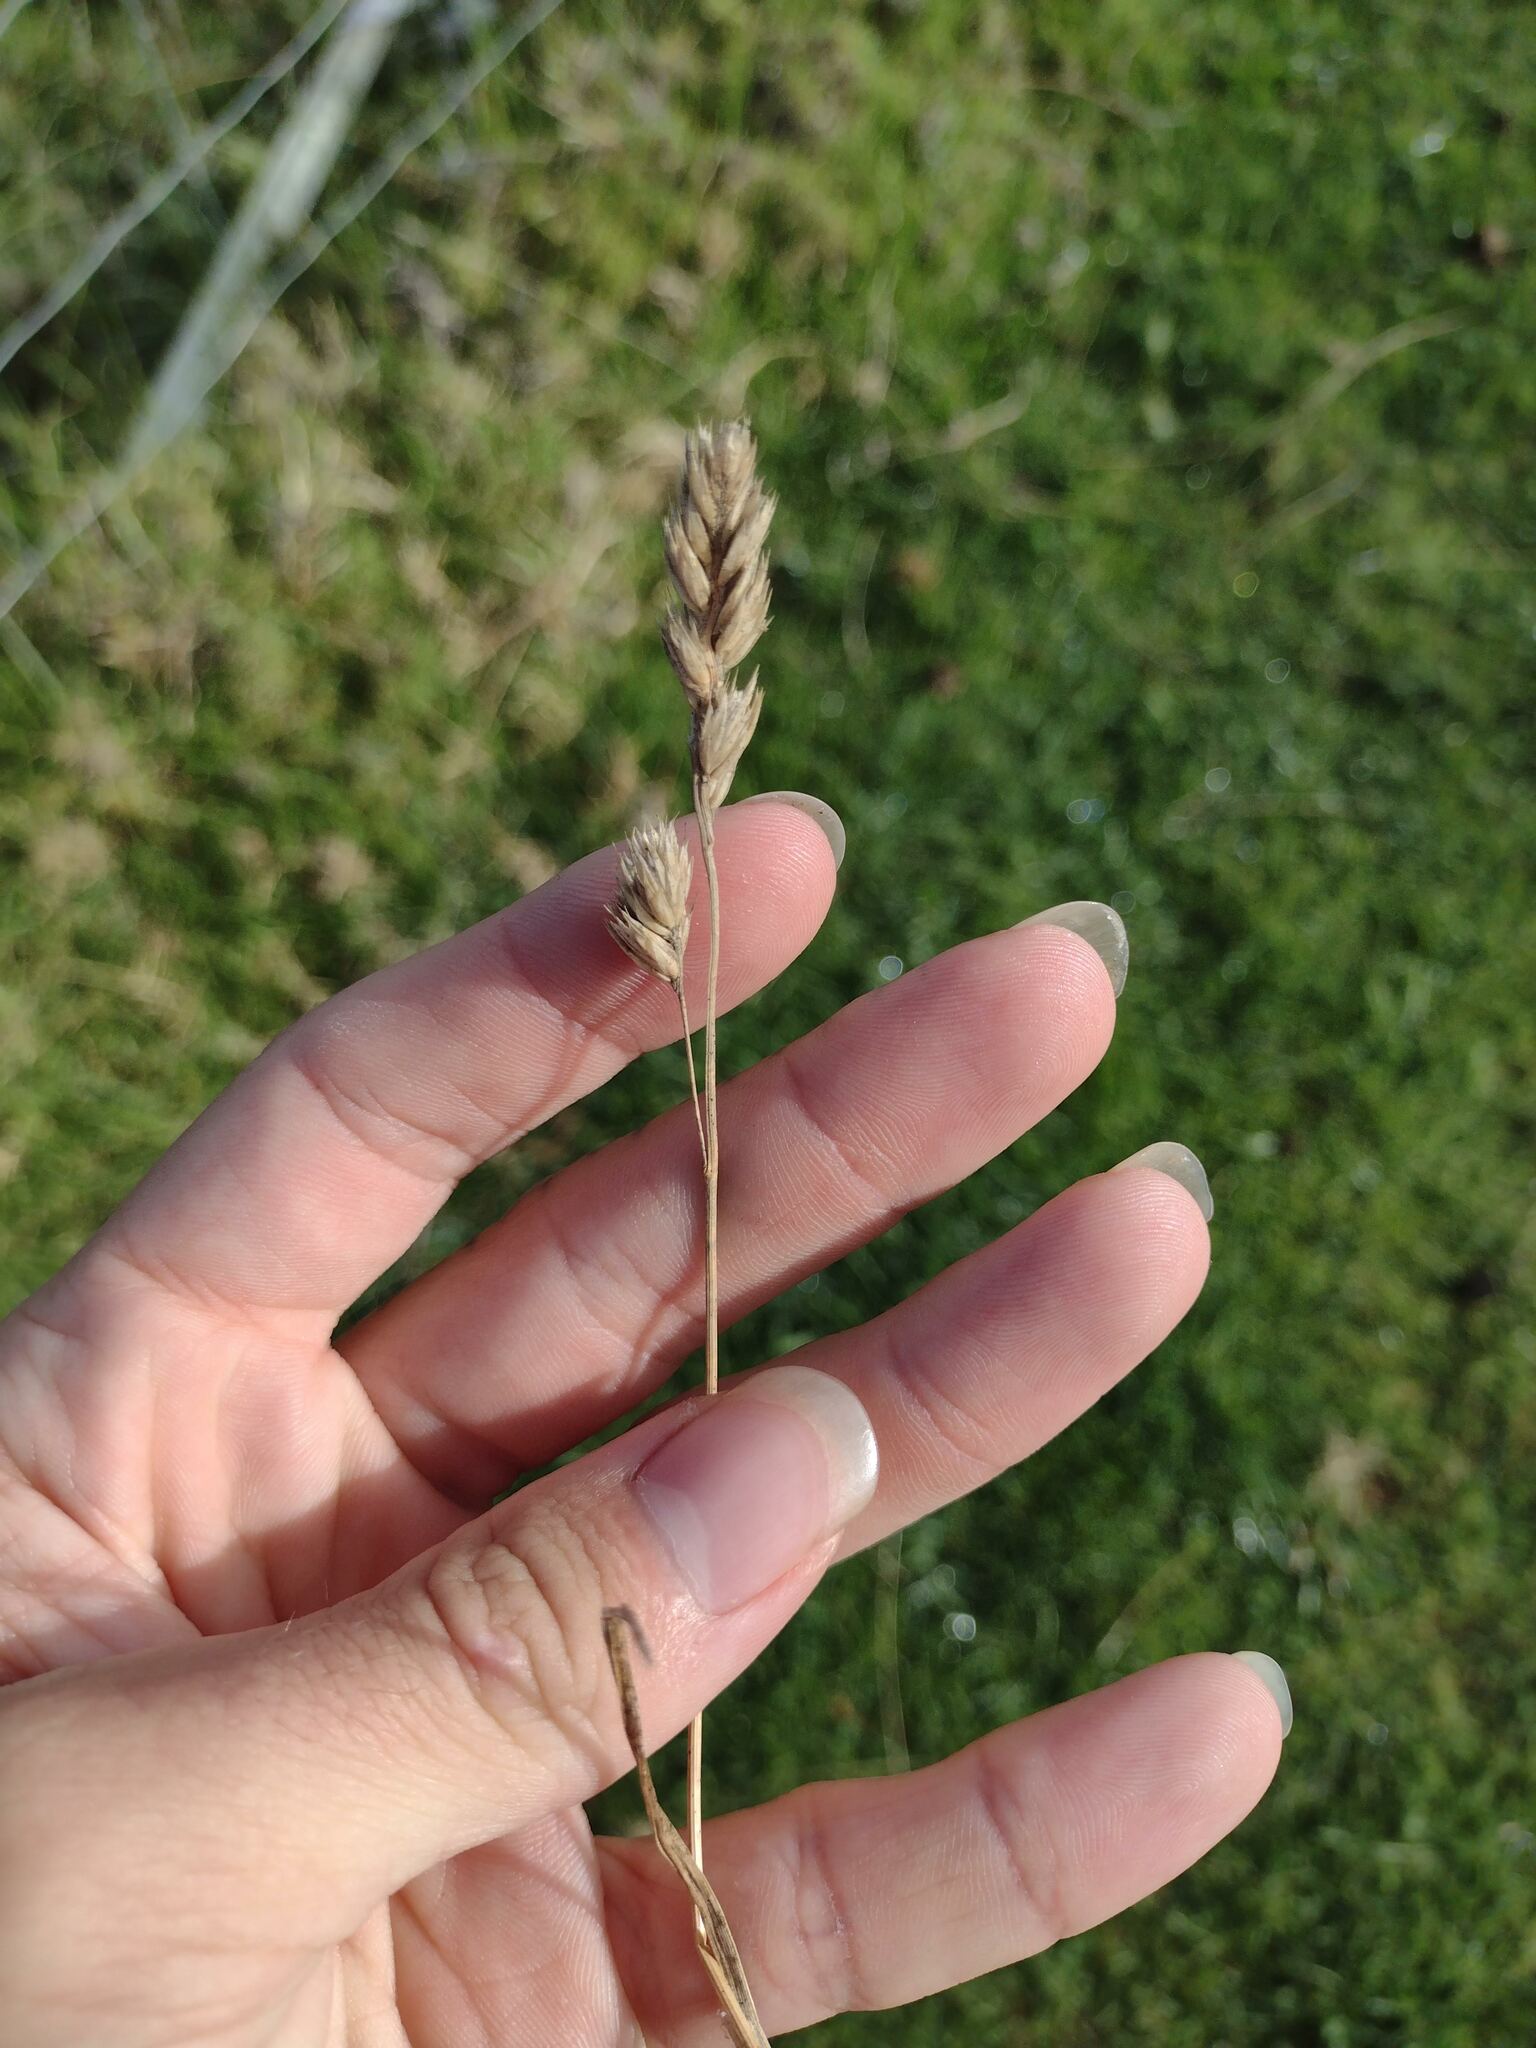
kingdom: Plantae
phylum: Tracheophyta
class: Liliopsida
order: Poales
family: Poaceae
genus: Dactylis
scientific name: Dactylis glomerata
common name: Orchardgrass
